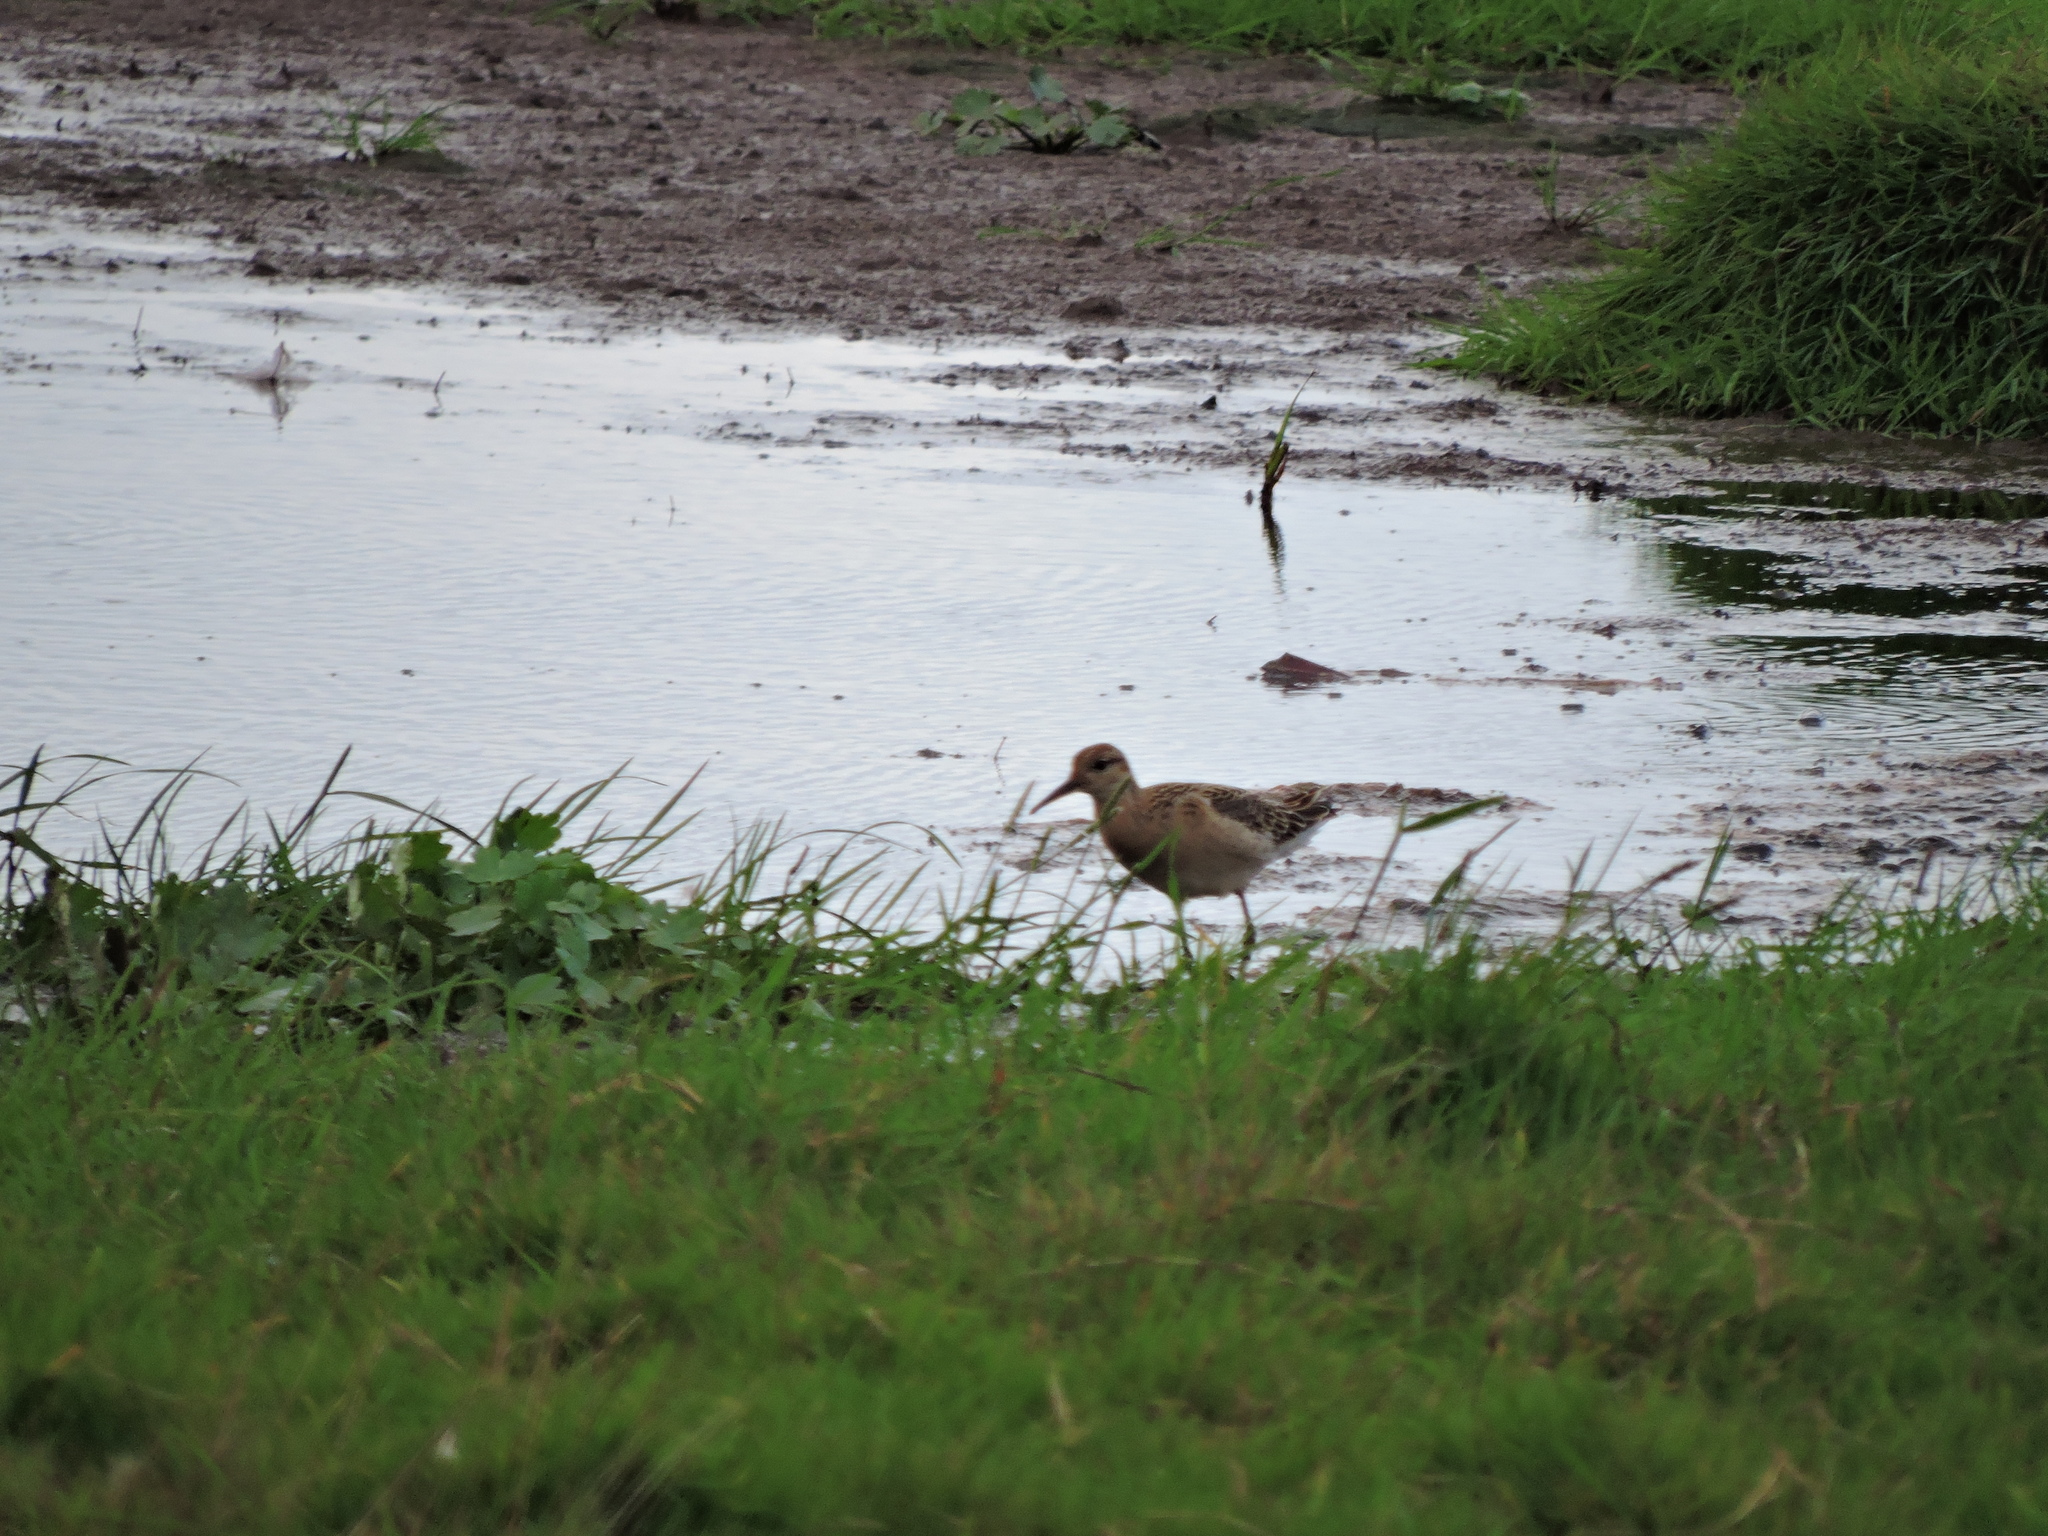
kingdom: Animalia
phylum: Chordata
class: Aves
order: Charadriiformes
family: Scolopacidae
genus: Calidris
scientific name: Calidris pugnax
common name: Ruff
